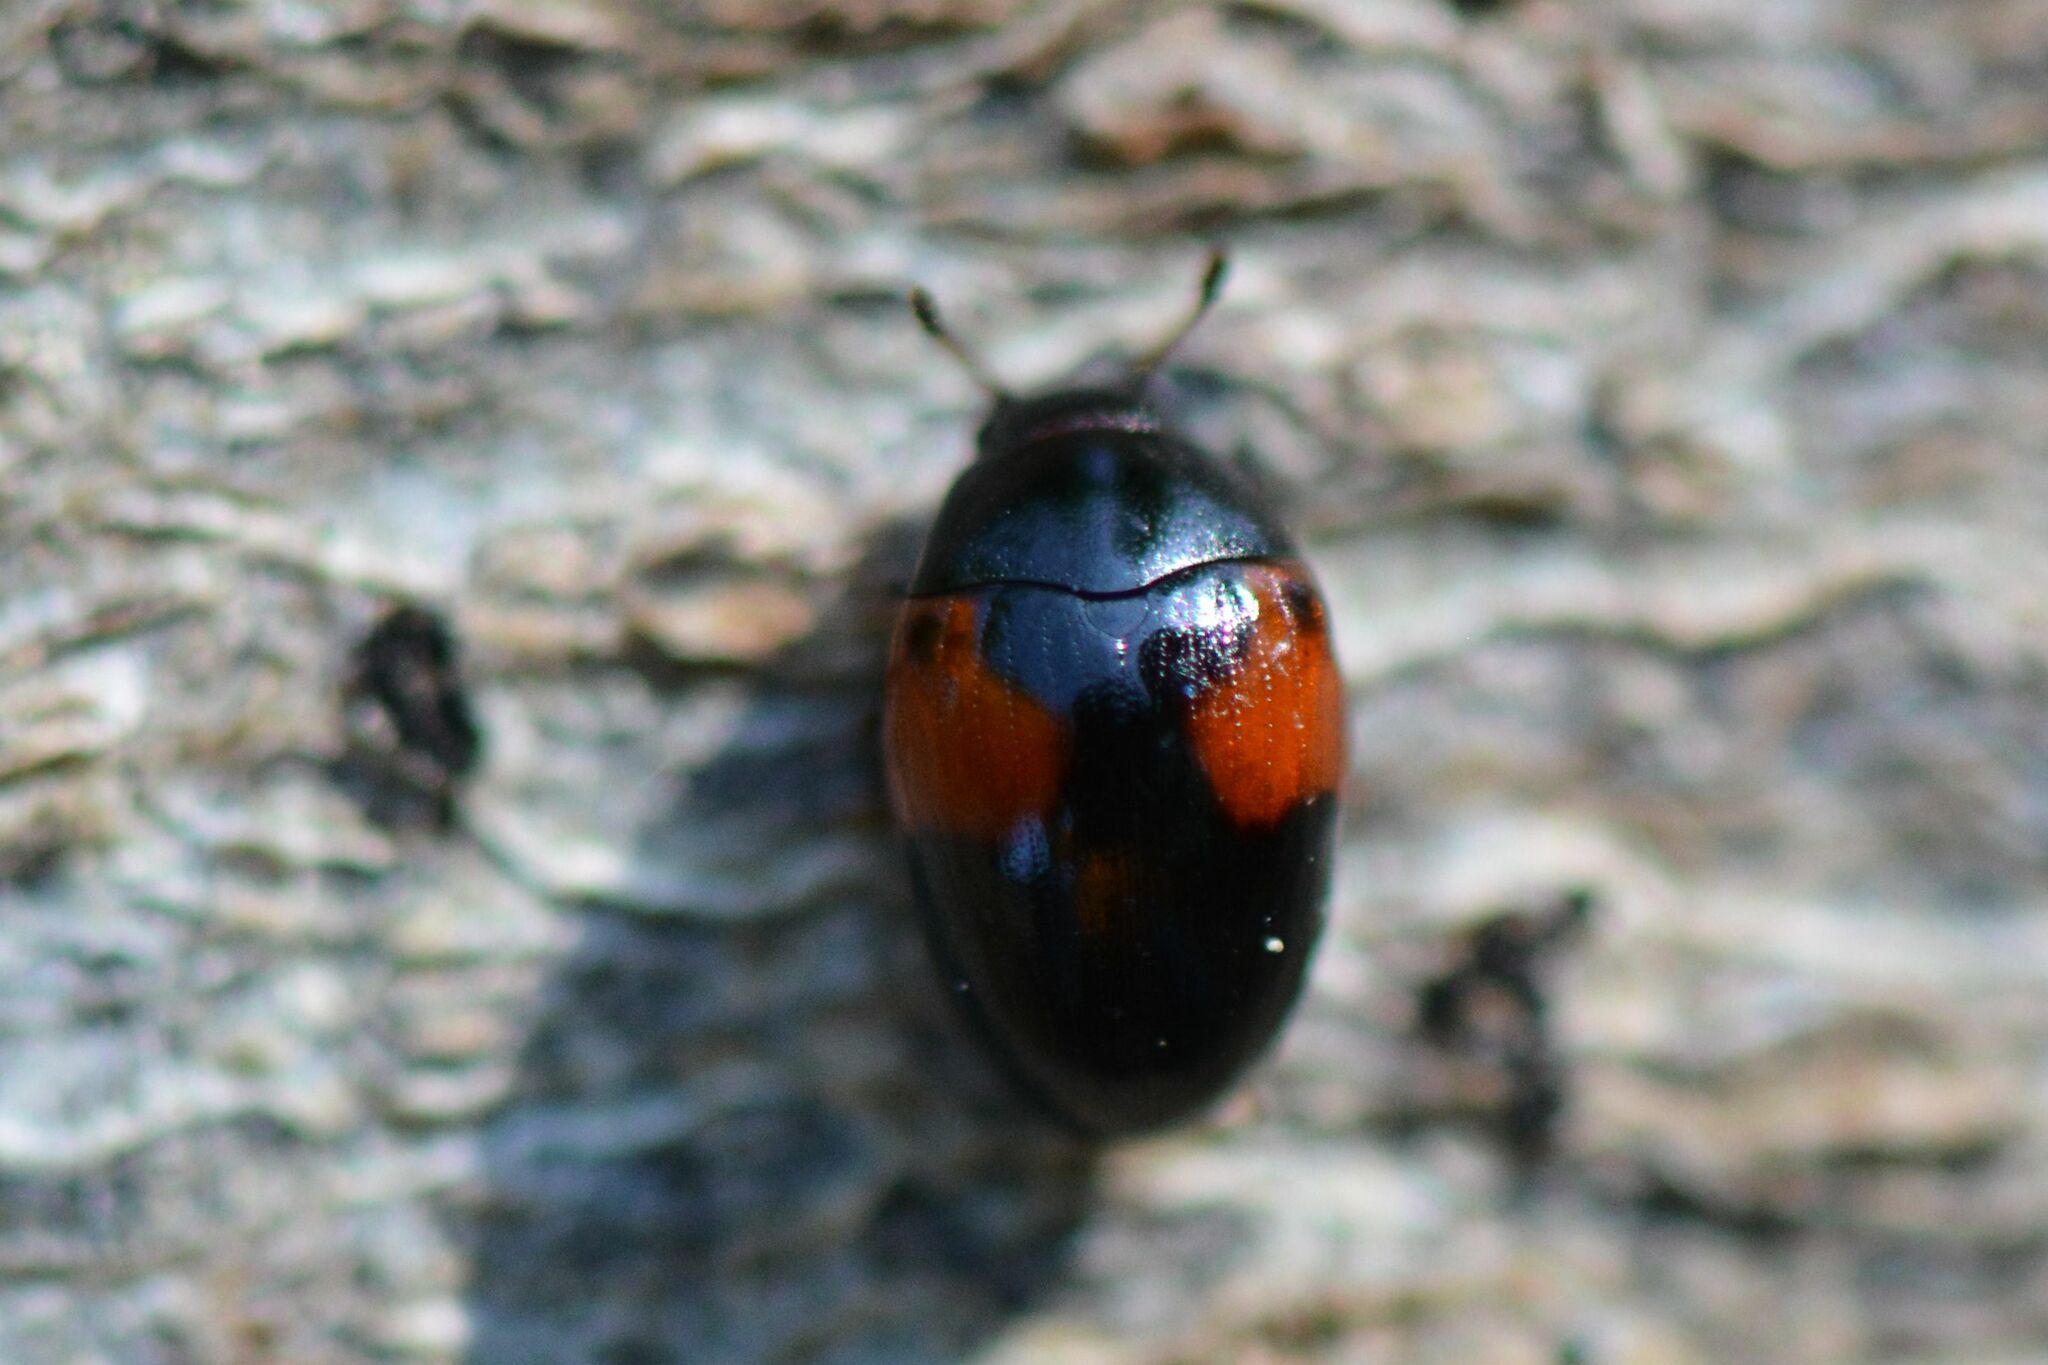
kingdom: Animalia
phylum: Arthropoda
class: Insecta
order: Coleoptera
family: Erotylidae
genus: Tritoma
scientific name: Tritoma bipustulata
